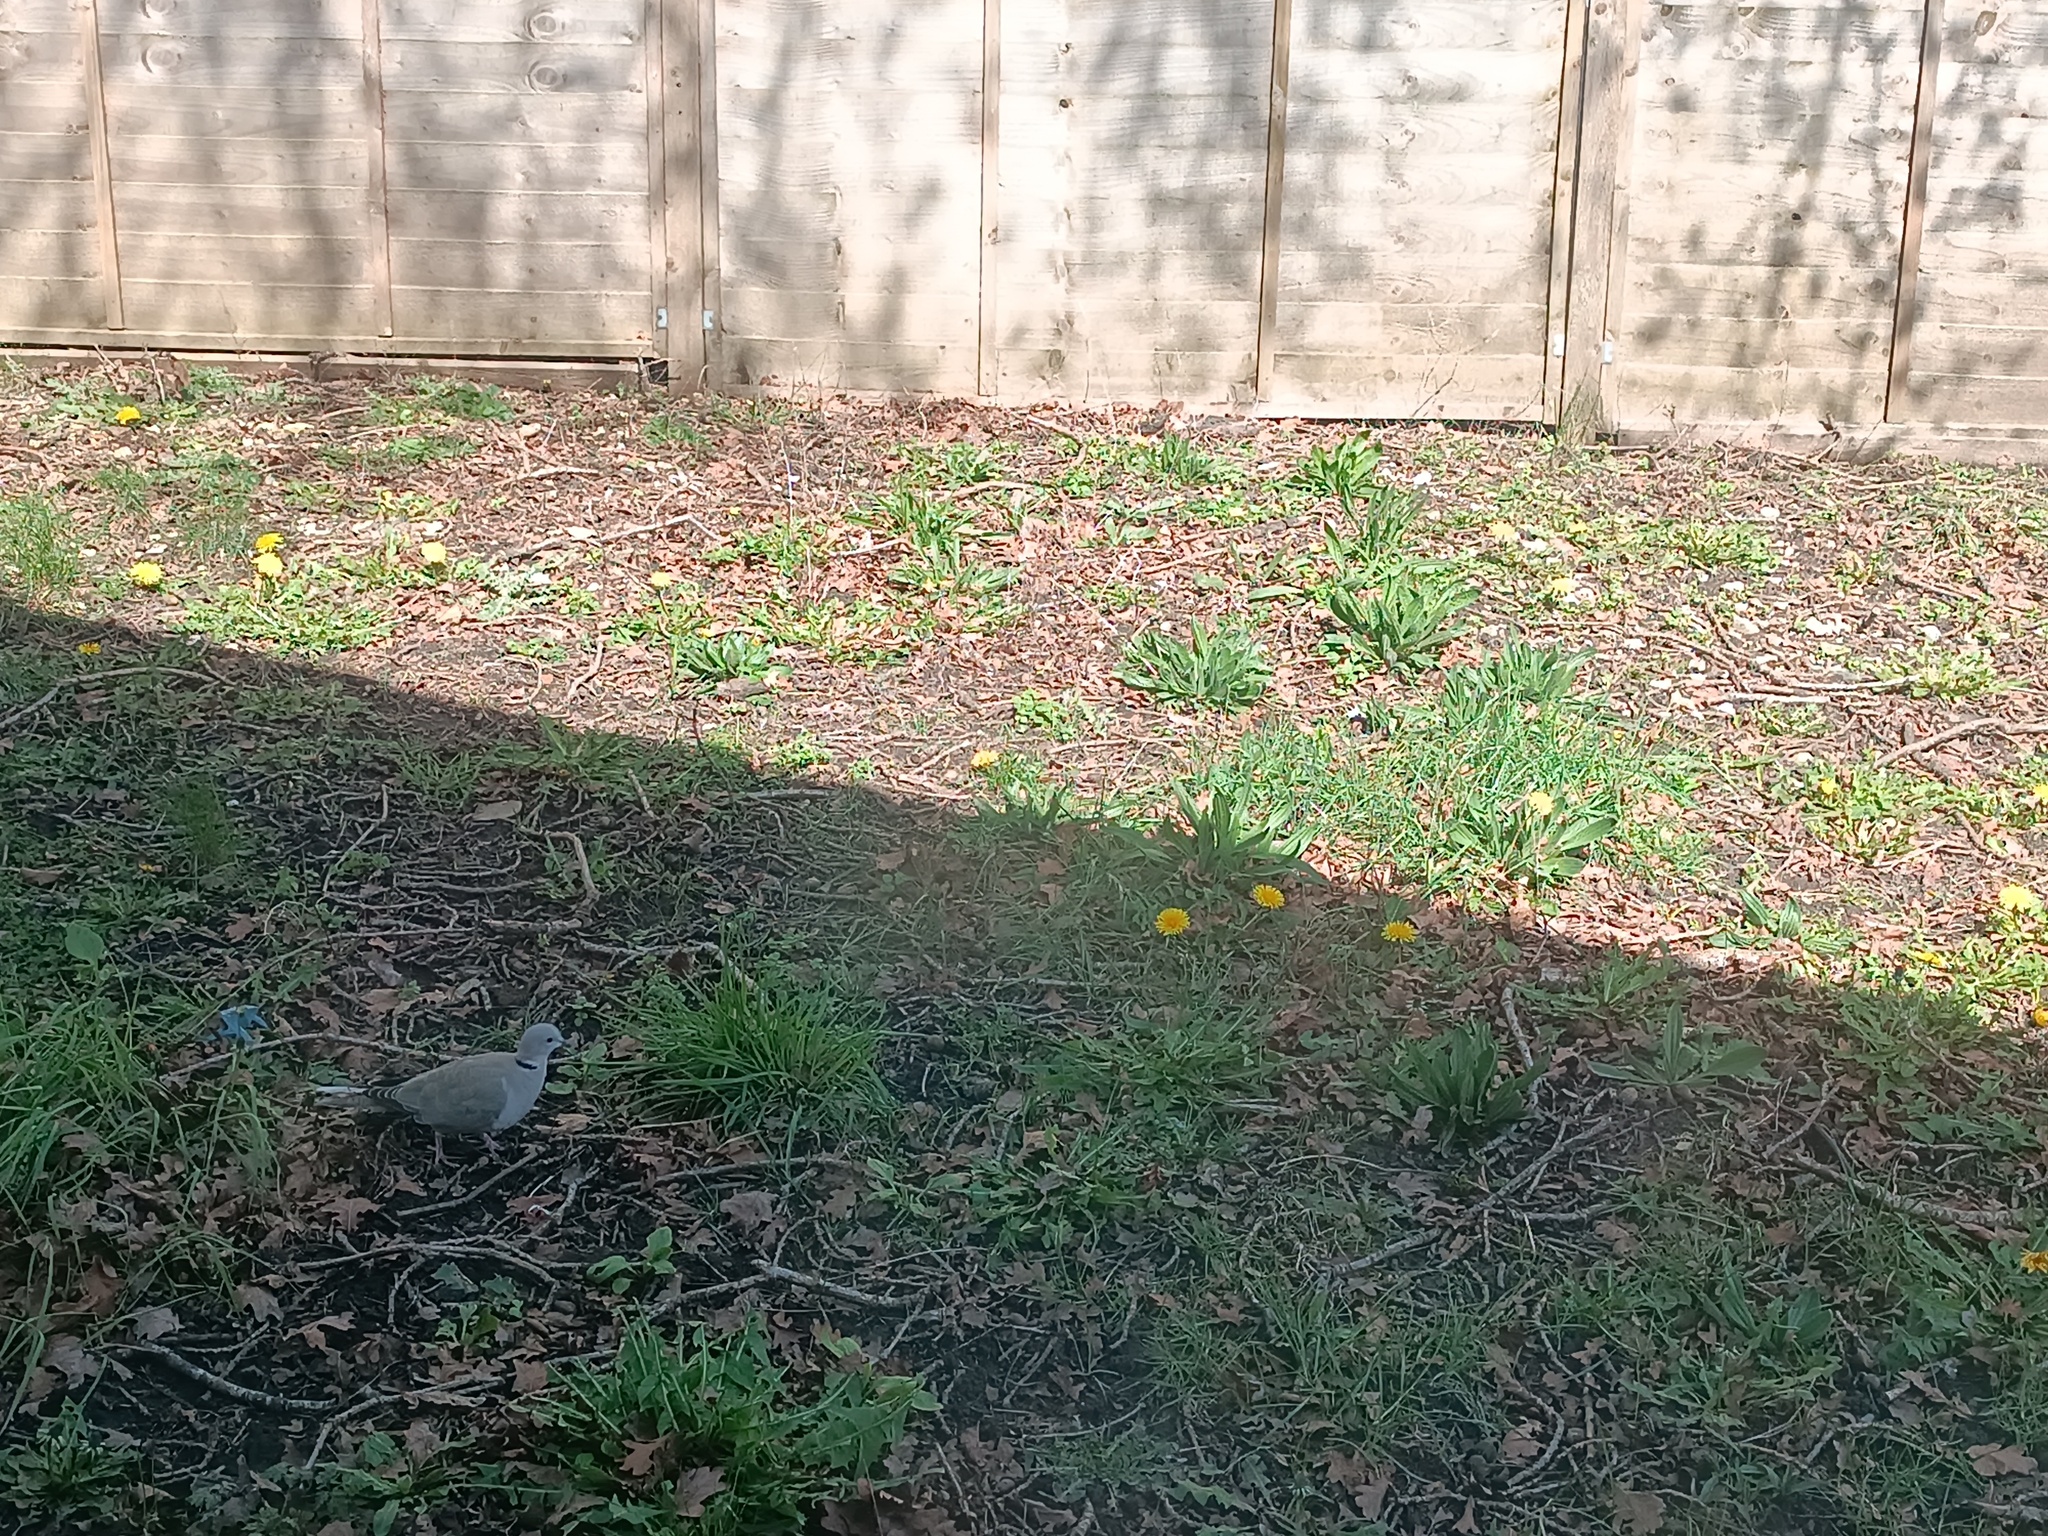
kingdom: Animalia
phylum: Chordata
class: Aves
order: Columbiformes
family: Columbidae
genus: Streptopelia
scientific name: Streptopelia decaocto
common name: Eurasian collared dove
